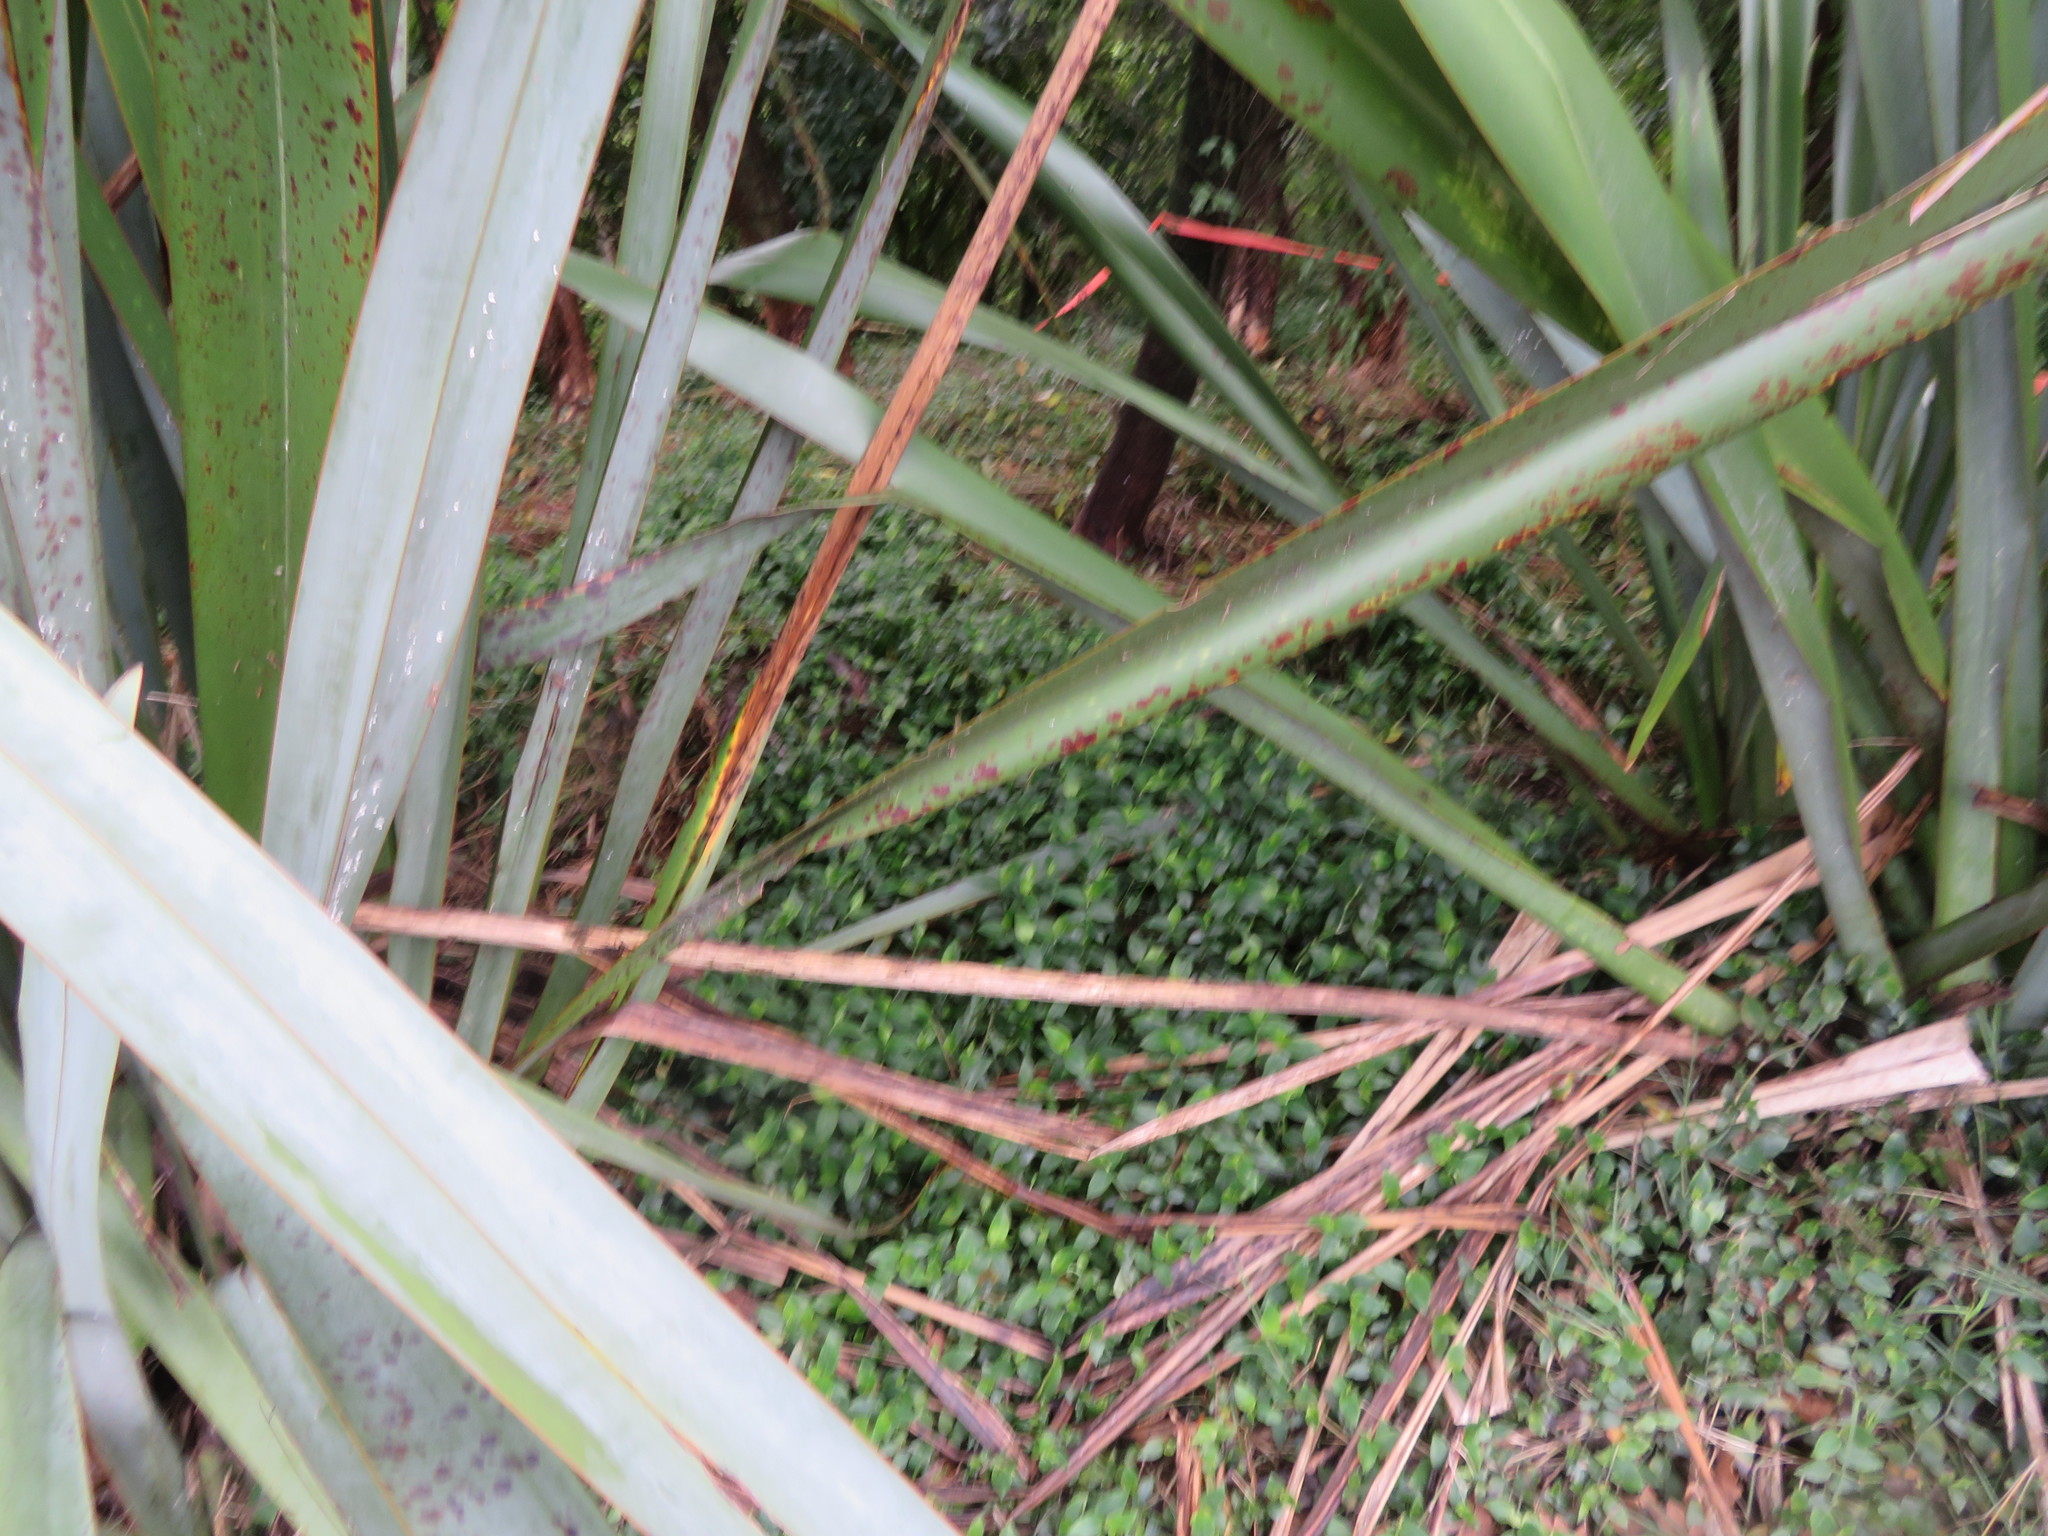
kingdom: Plantae
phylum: Tracheophyta
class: Liliopsida
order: Commelinales
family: Commelinaceae
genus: Tradescantia
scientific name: Tradescantia fluminensis
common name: Wandering-jew
